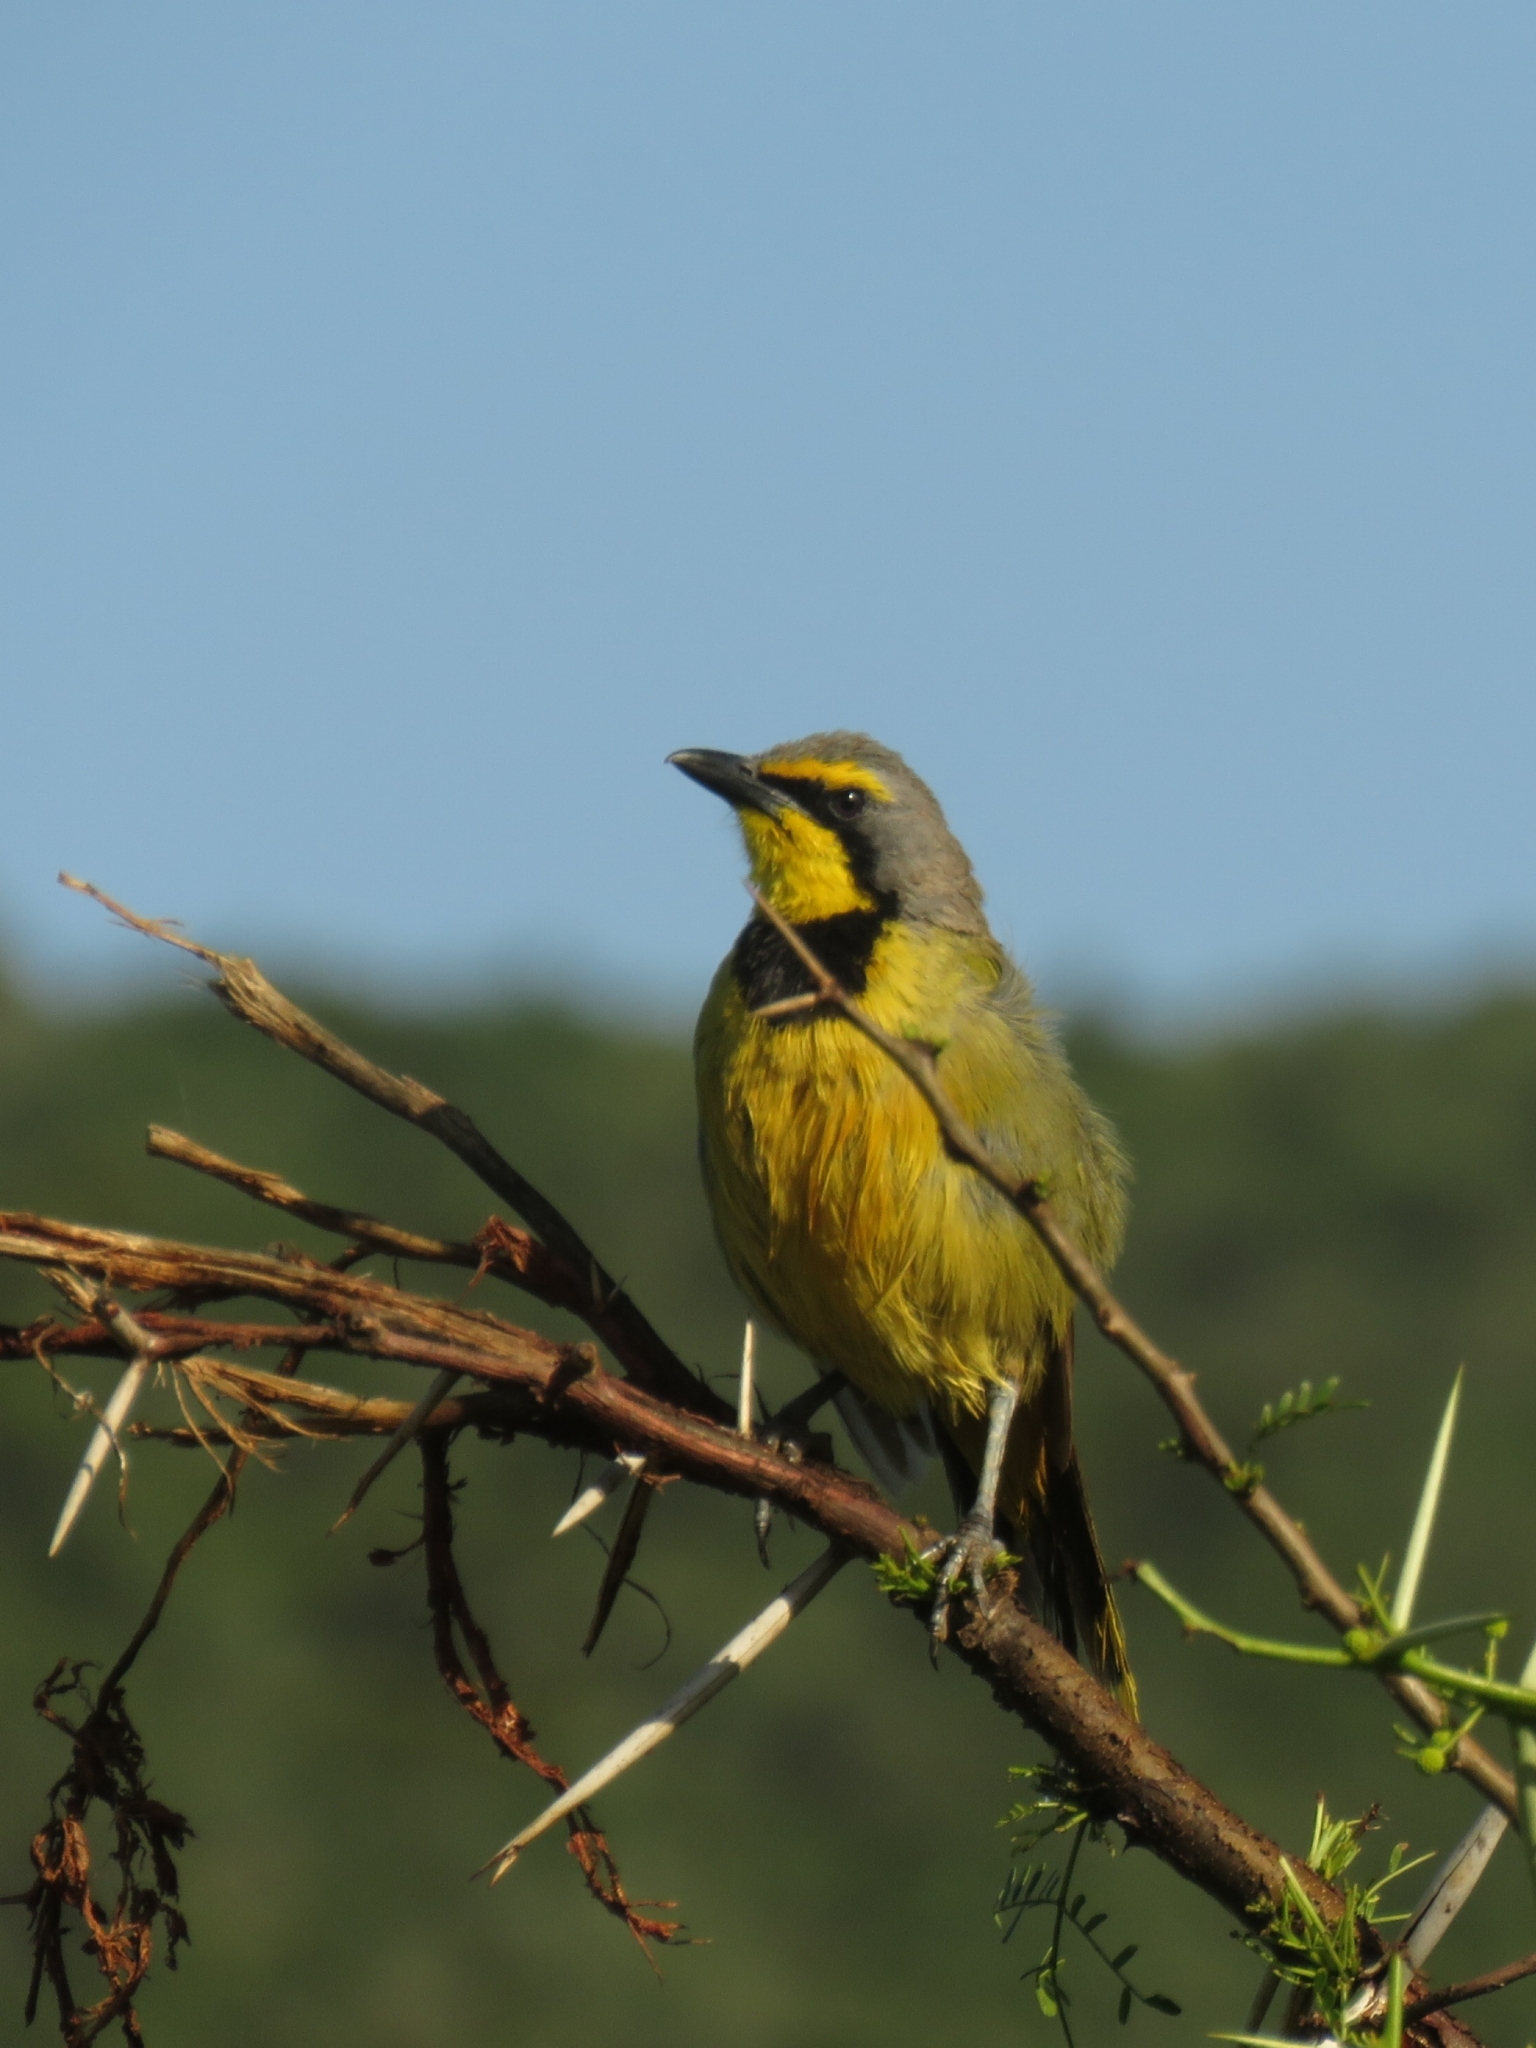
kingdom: Animalia
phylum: Chordata
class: Aves
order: Passeriformes
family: Malaconotidae
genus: Telophorus
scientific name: Telophorus zeylonus
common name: Bokmakierie
